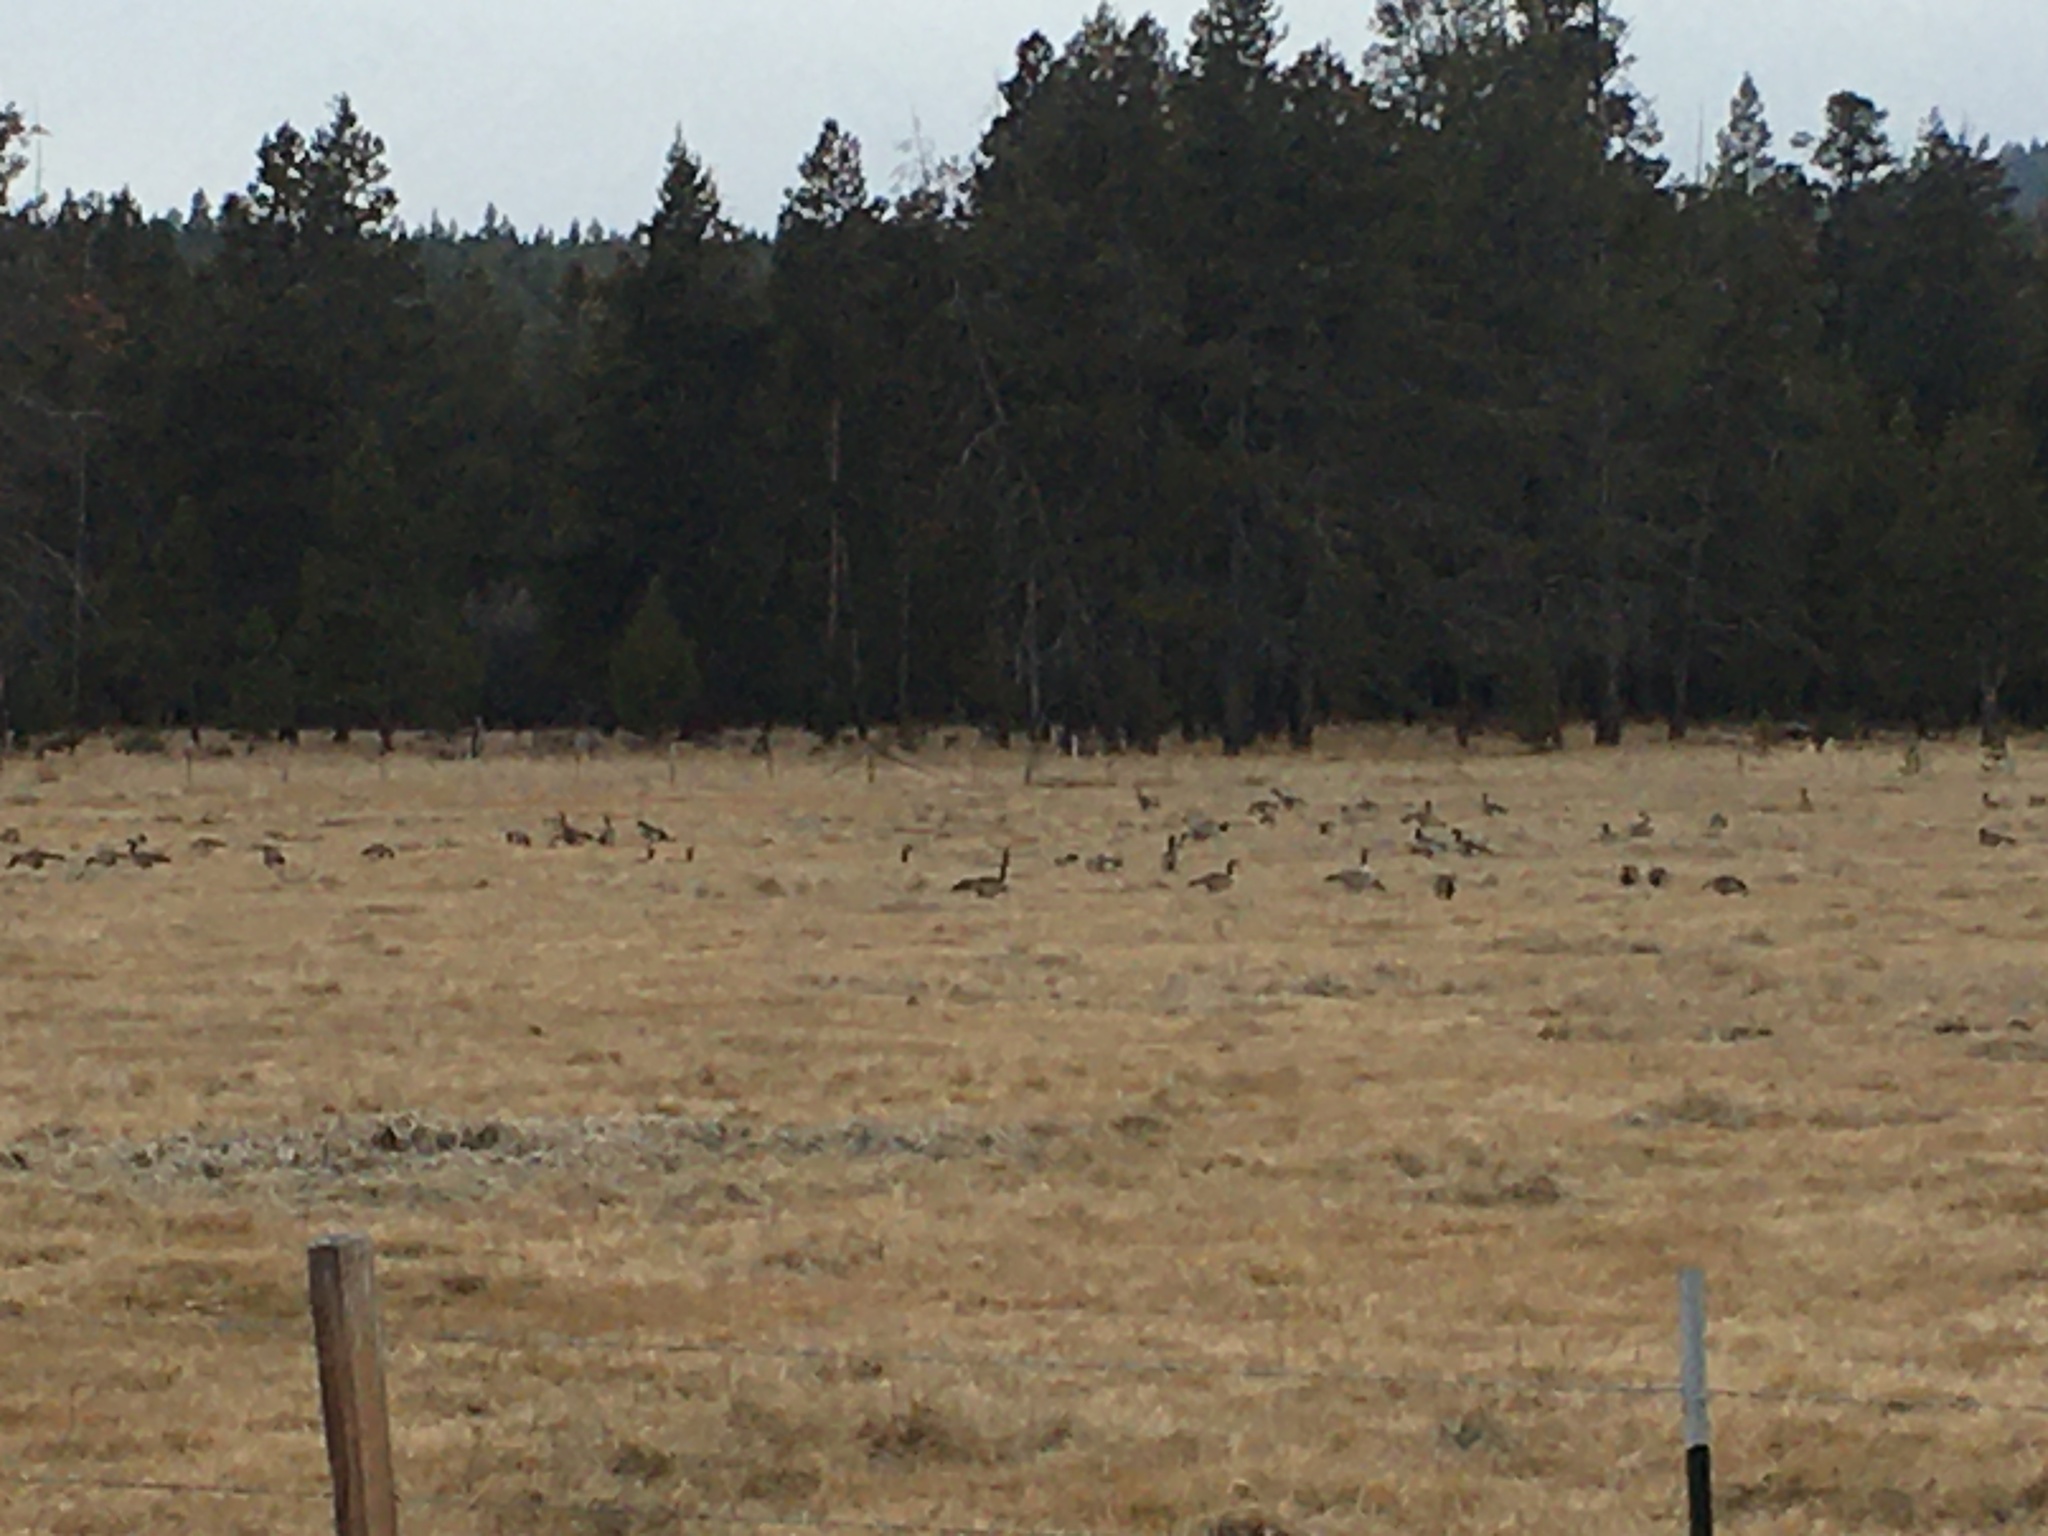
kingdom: Animalia
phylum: Chordata
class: Aves
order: Anseriformes
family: Anatidae
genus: Branta
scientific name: Branta canadensis
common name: Canada goose
